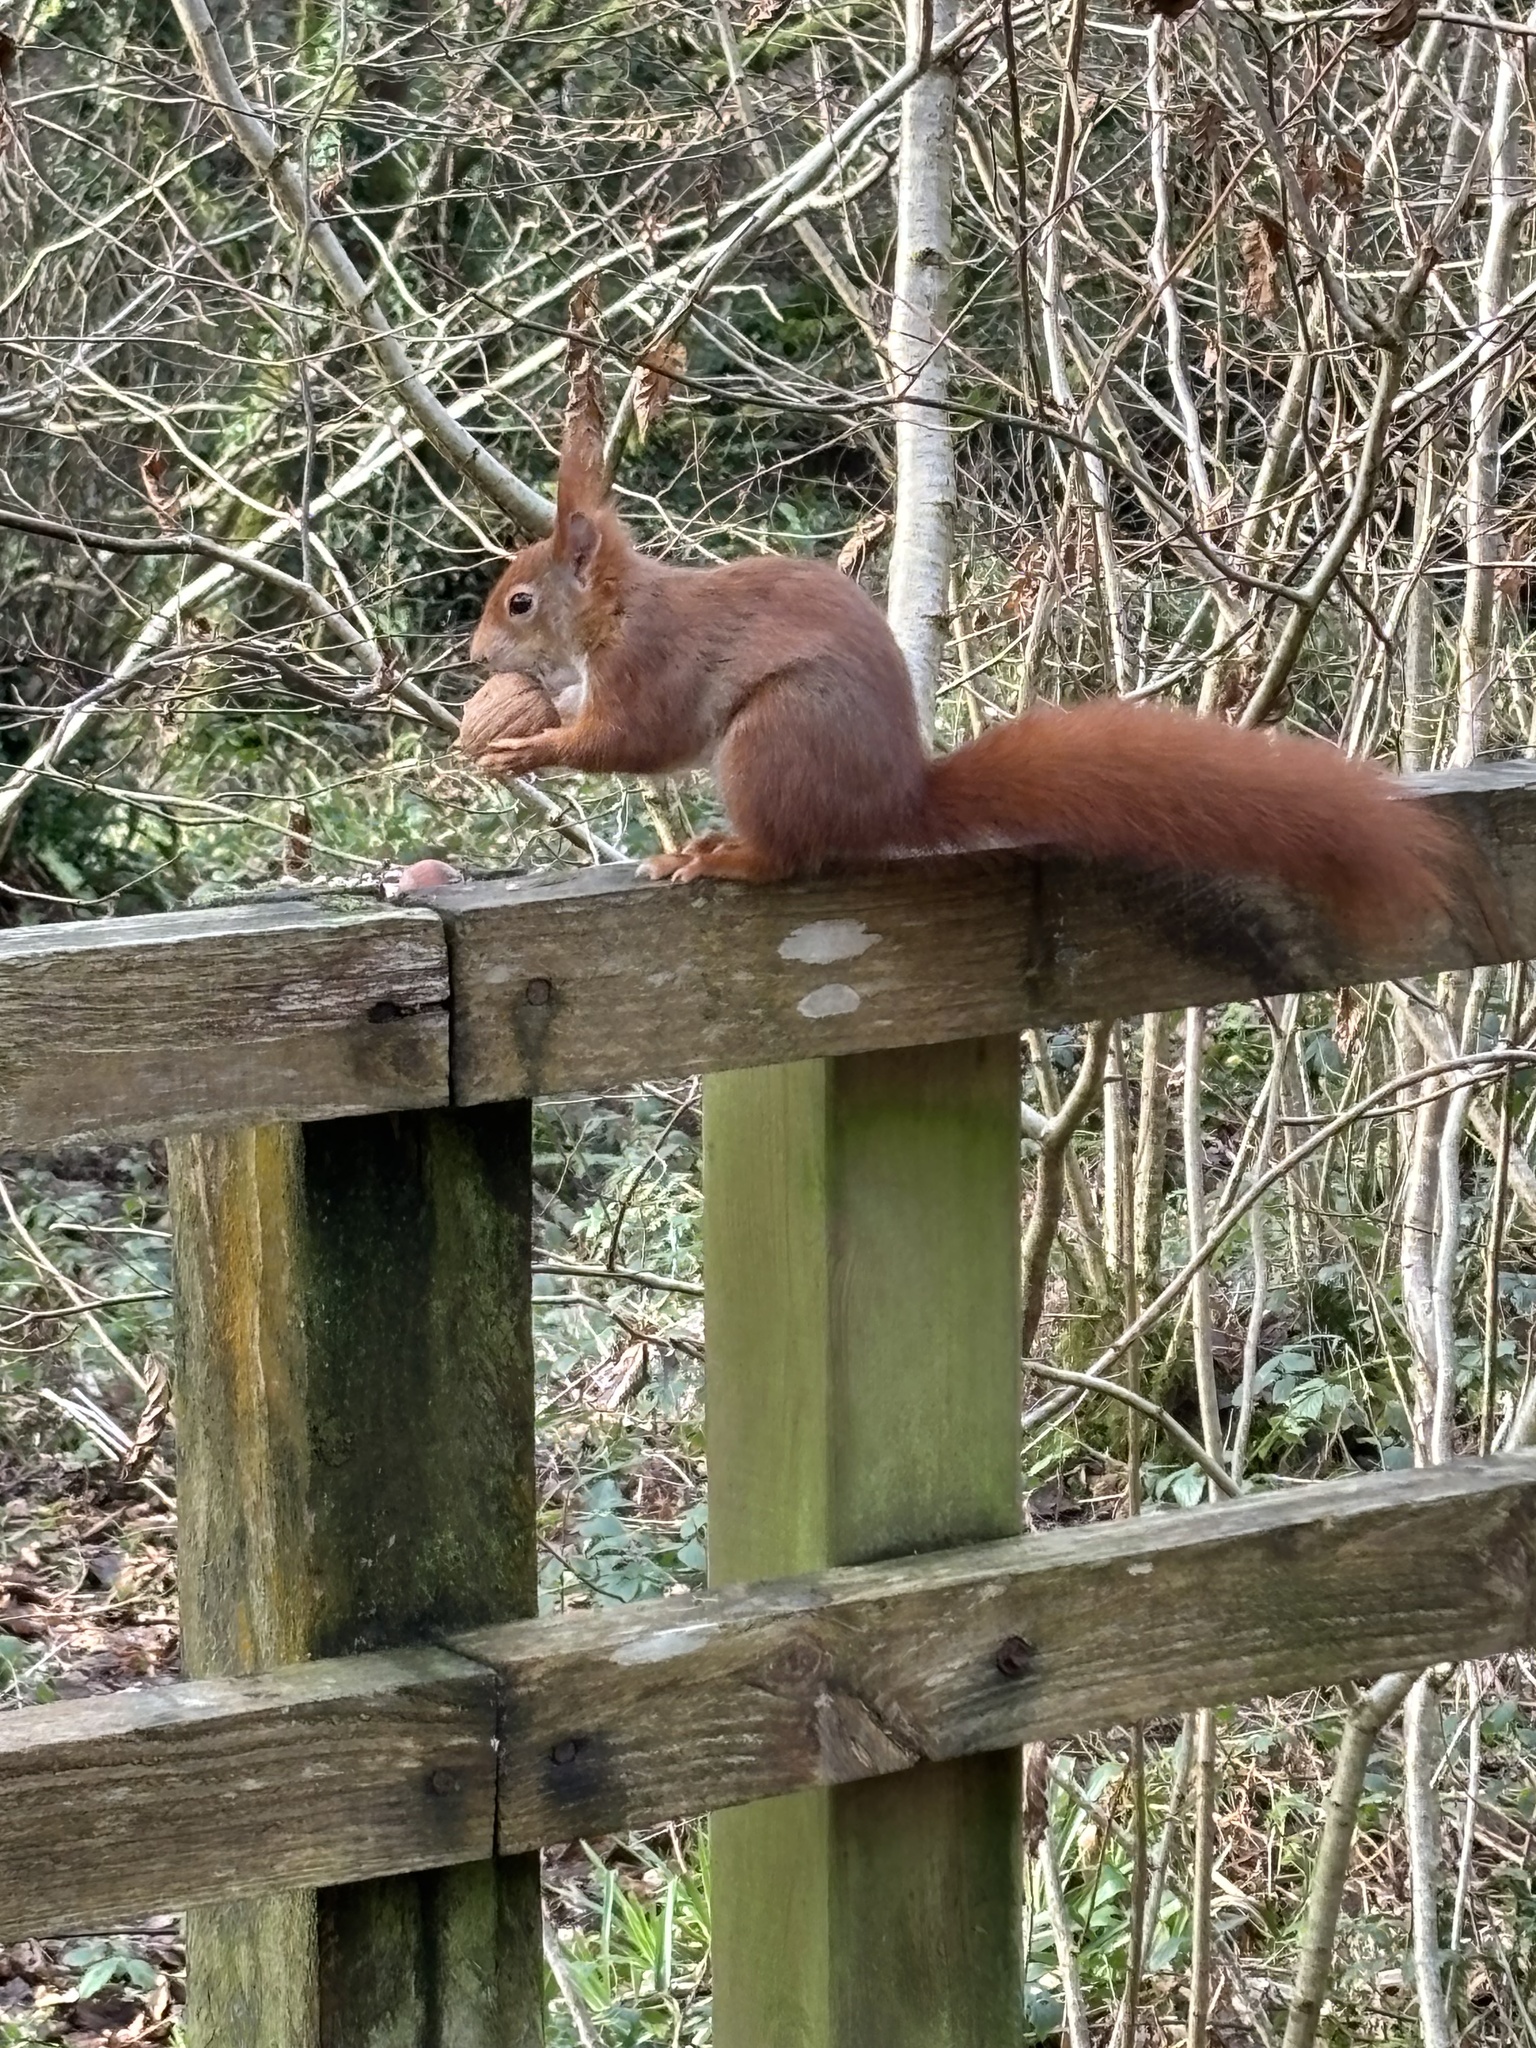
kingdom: Animalia
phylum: Chordata
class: Mammalia
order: Rodentia
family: Sciuridae
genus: Sciurus
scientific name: Sciurus vulgaris
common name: Eurasian red squirrel
